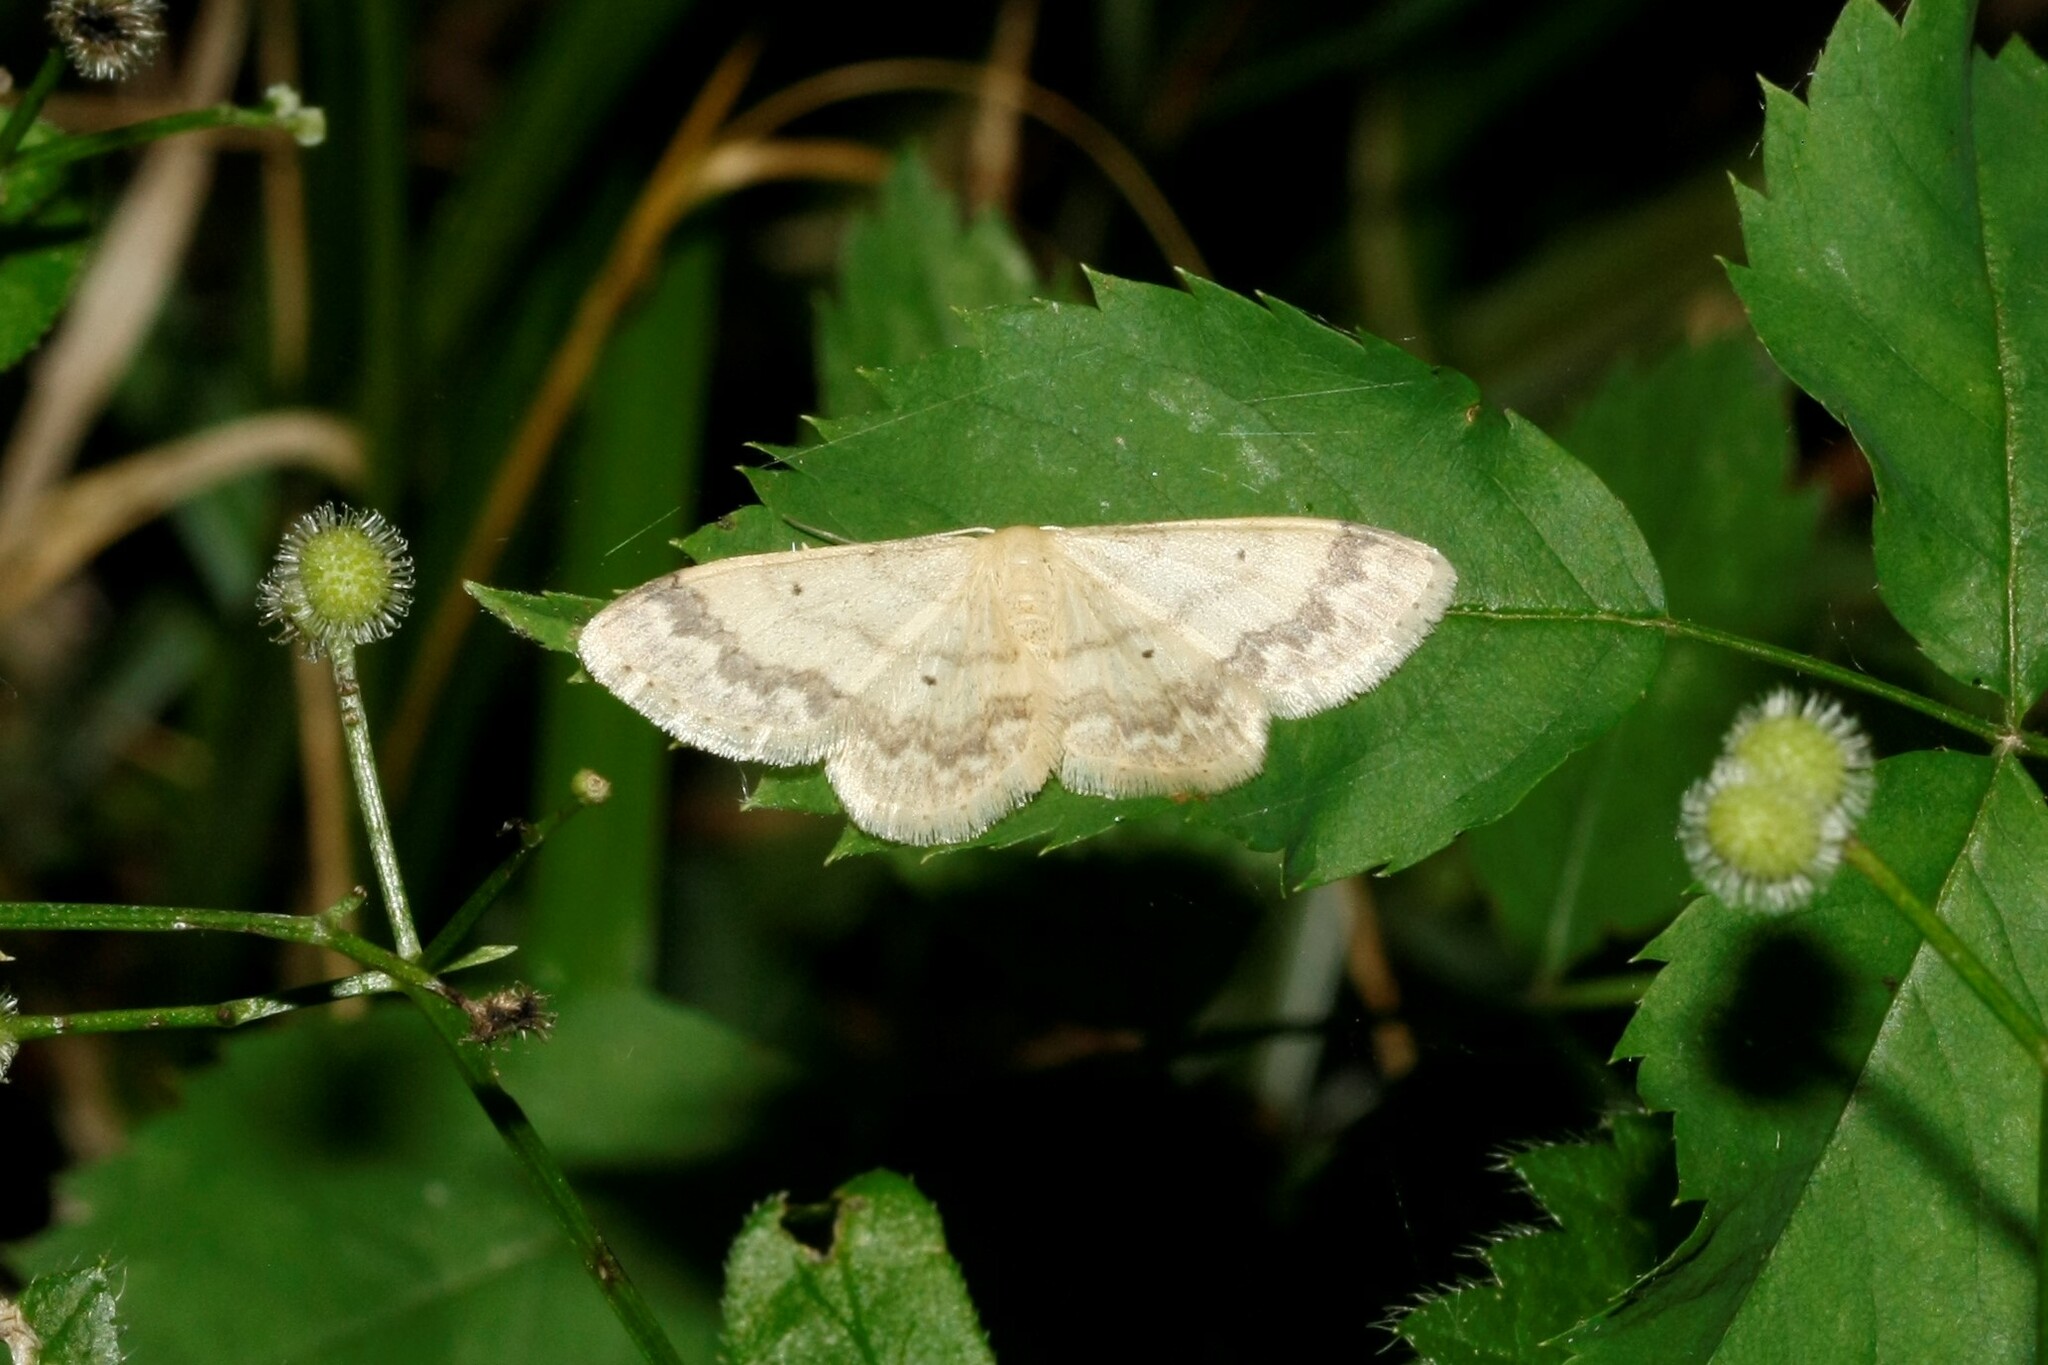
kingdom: Animalia
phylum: Arthropoda
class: Insecta
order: Lepidoptera
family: Geometridae
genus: Idaea
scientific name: Idaea biselata
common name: Small fan-footed wave
